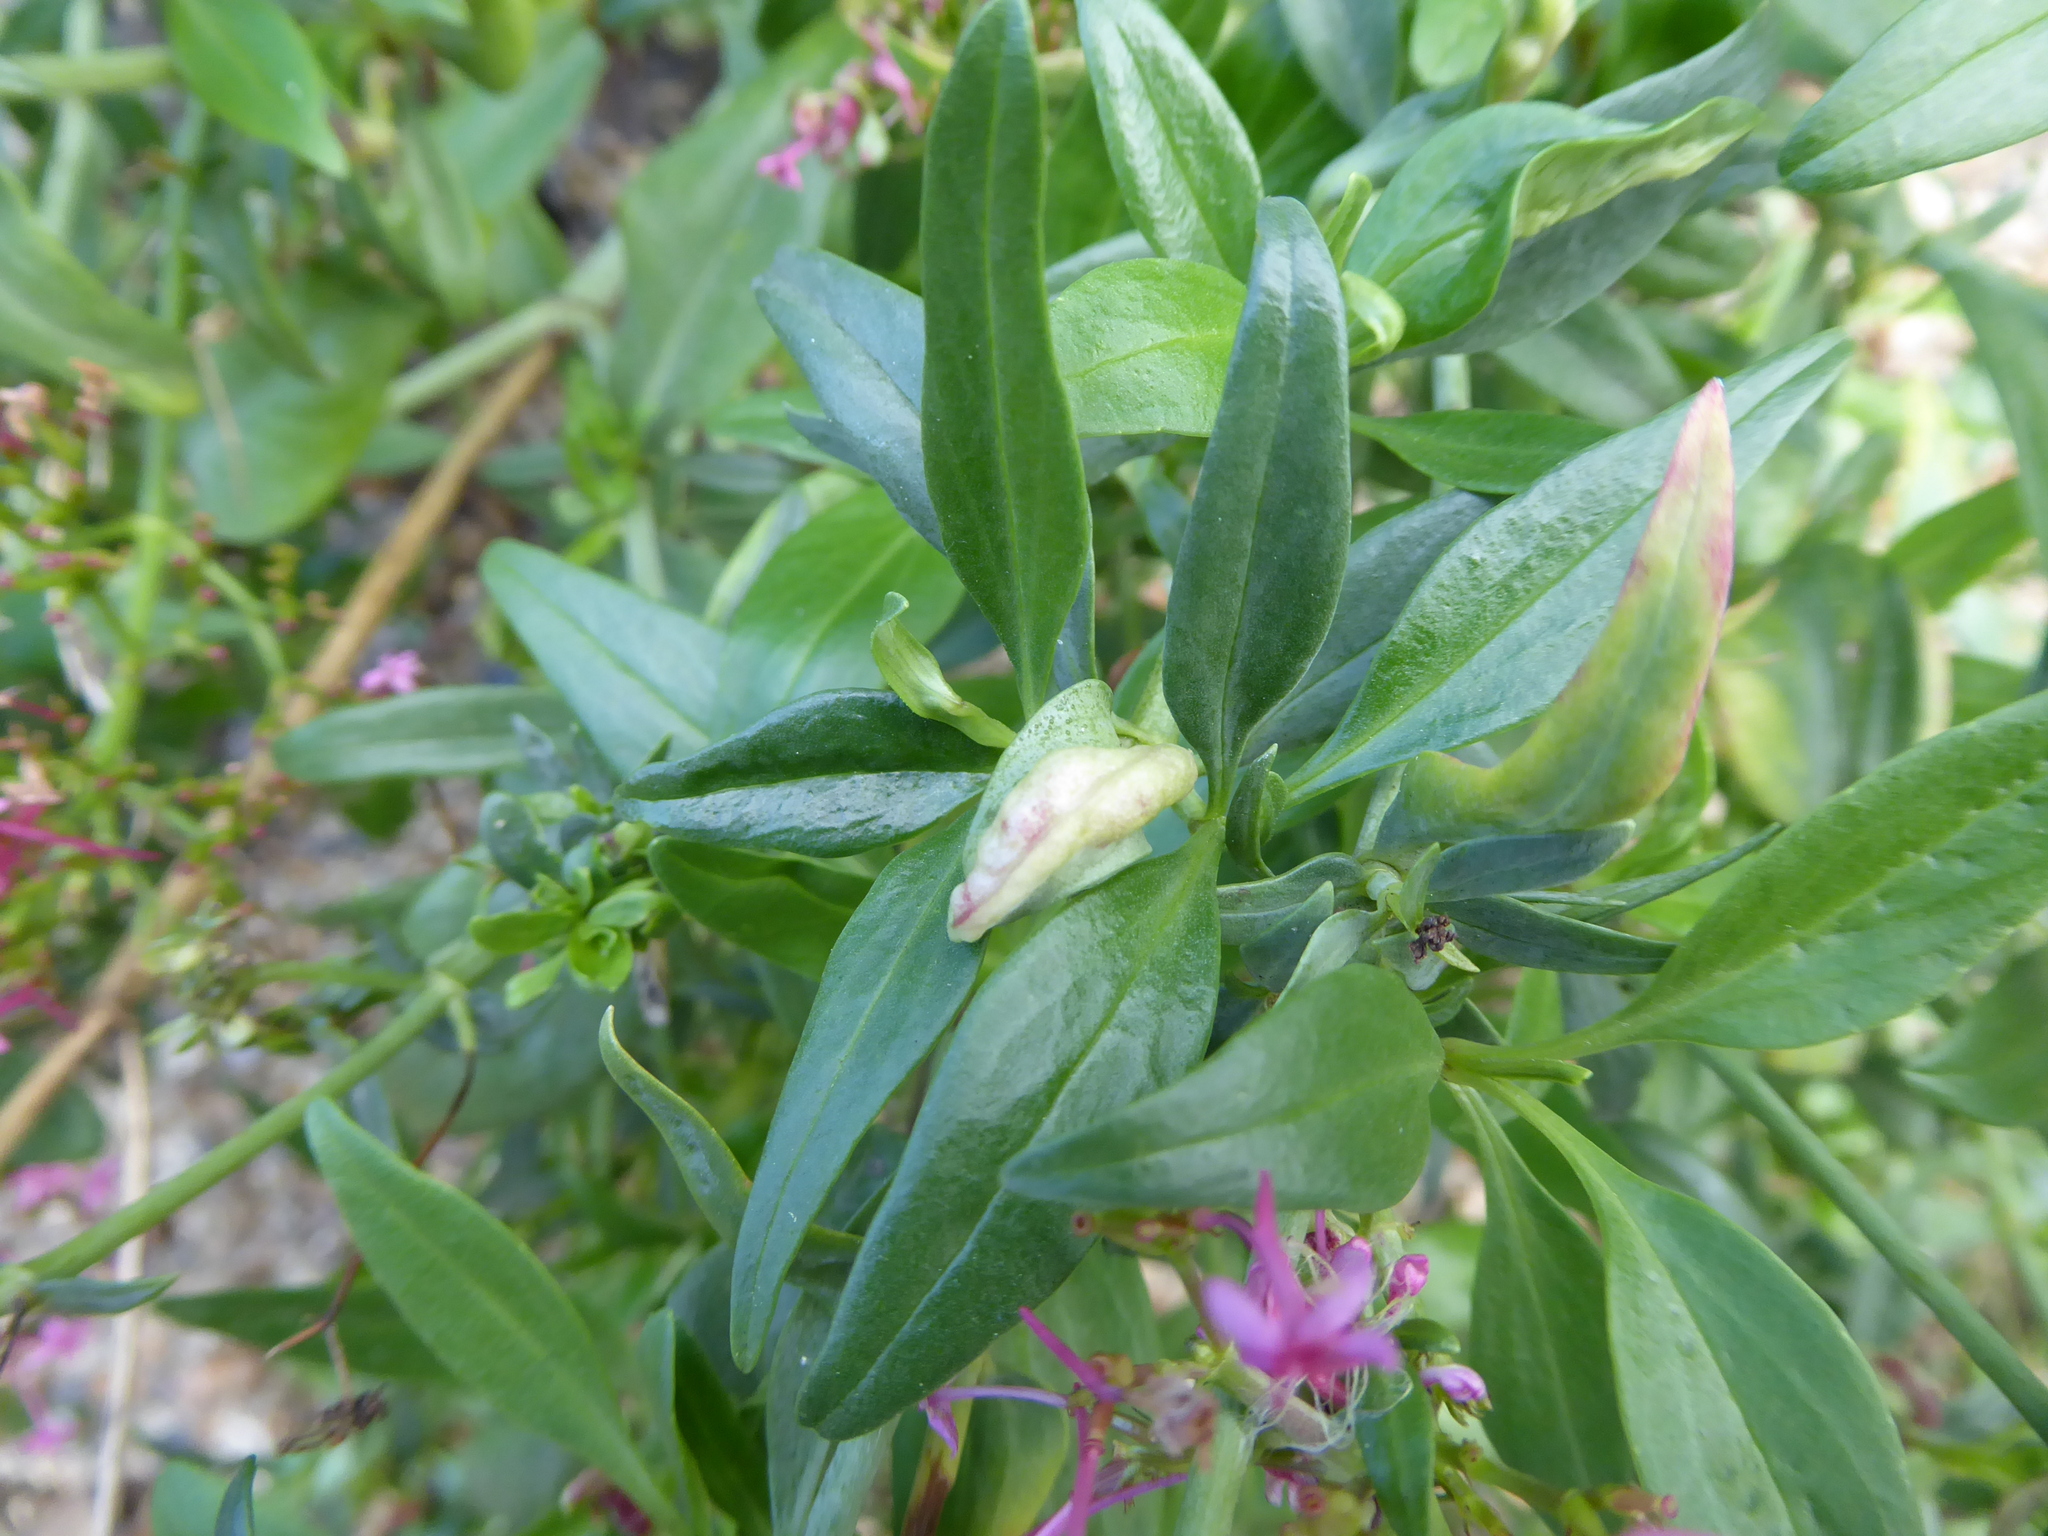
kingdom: Animalia
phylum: Arthropoda
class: Insecta
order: Hemiptera
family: Triozidae
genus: Trioza
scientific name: Trioza centranthi
